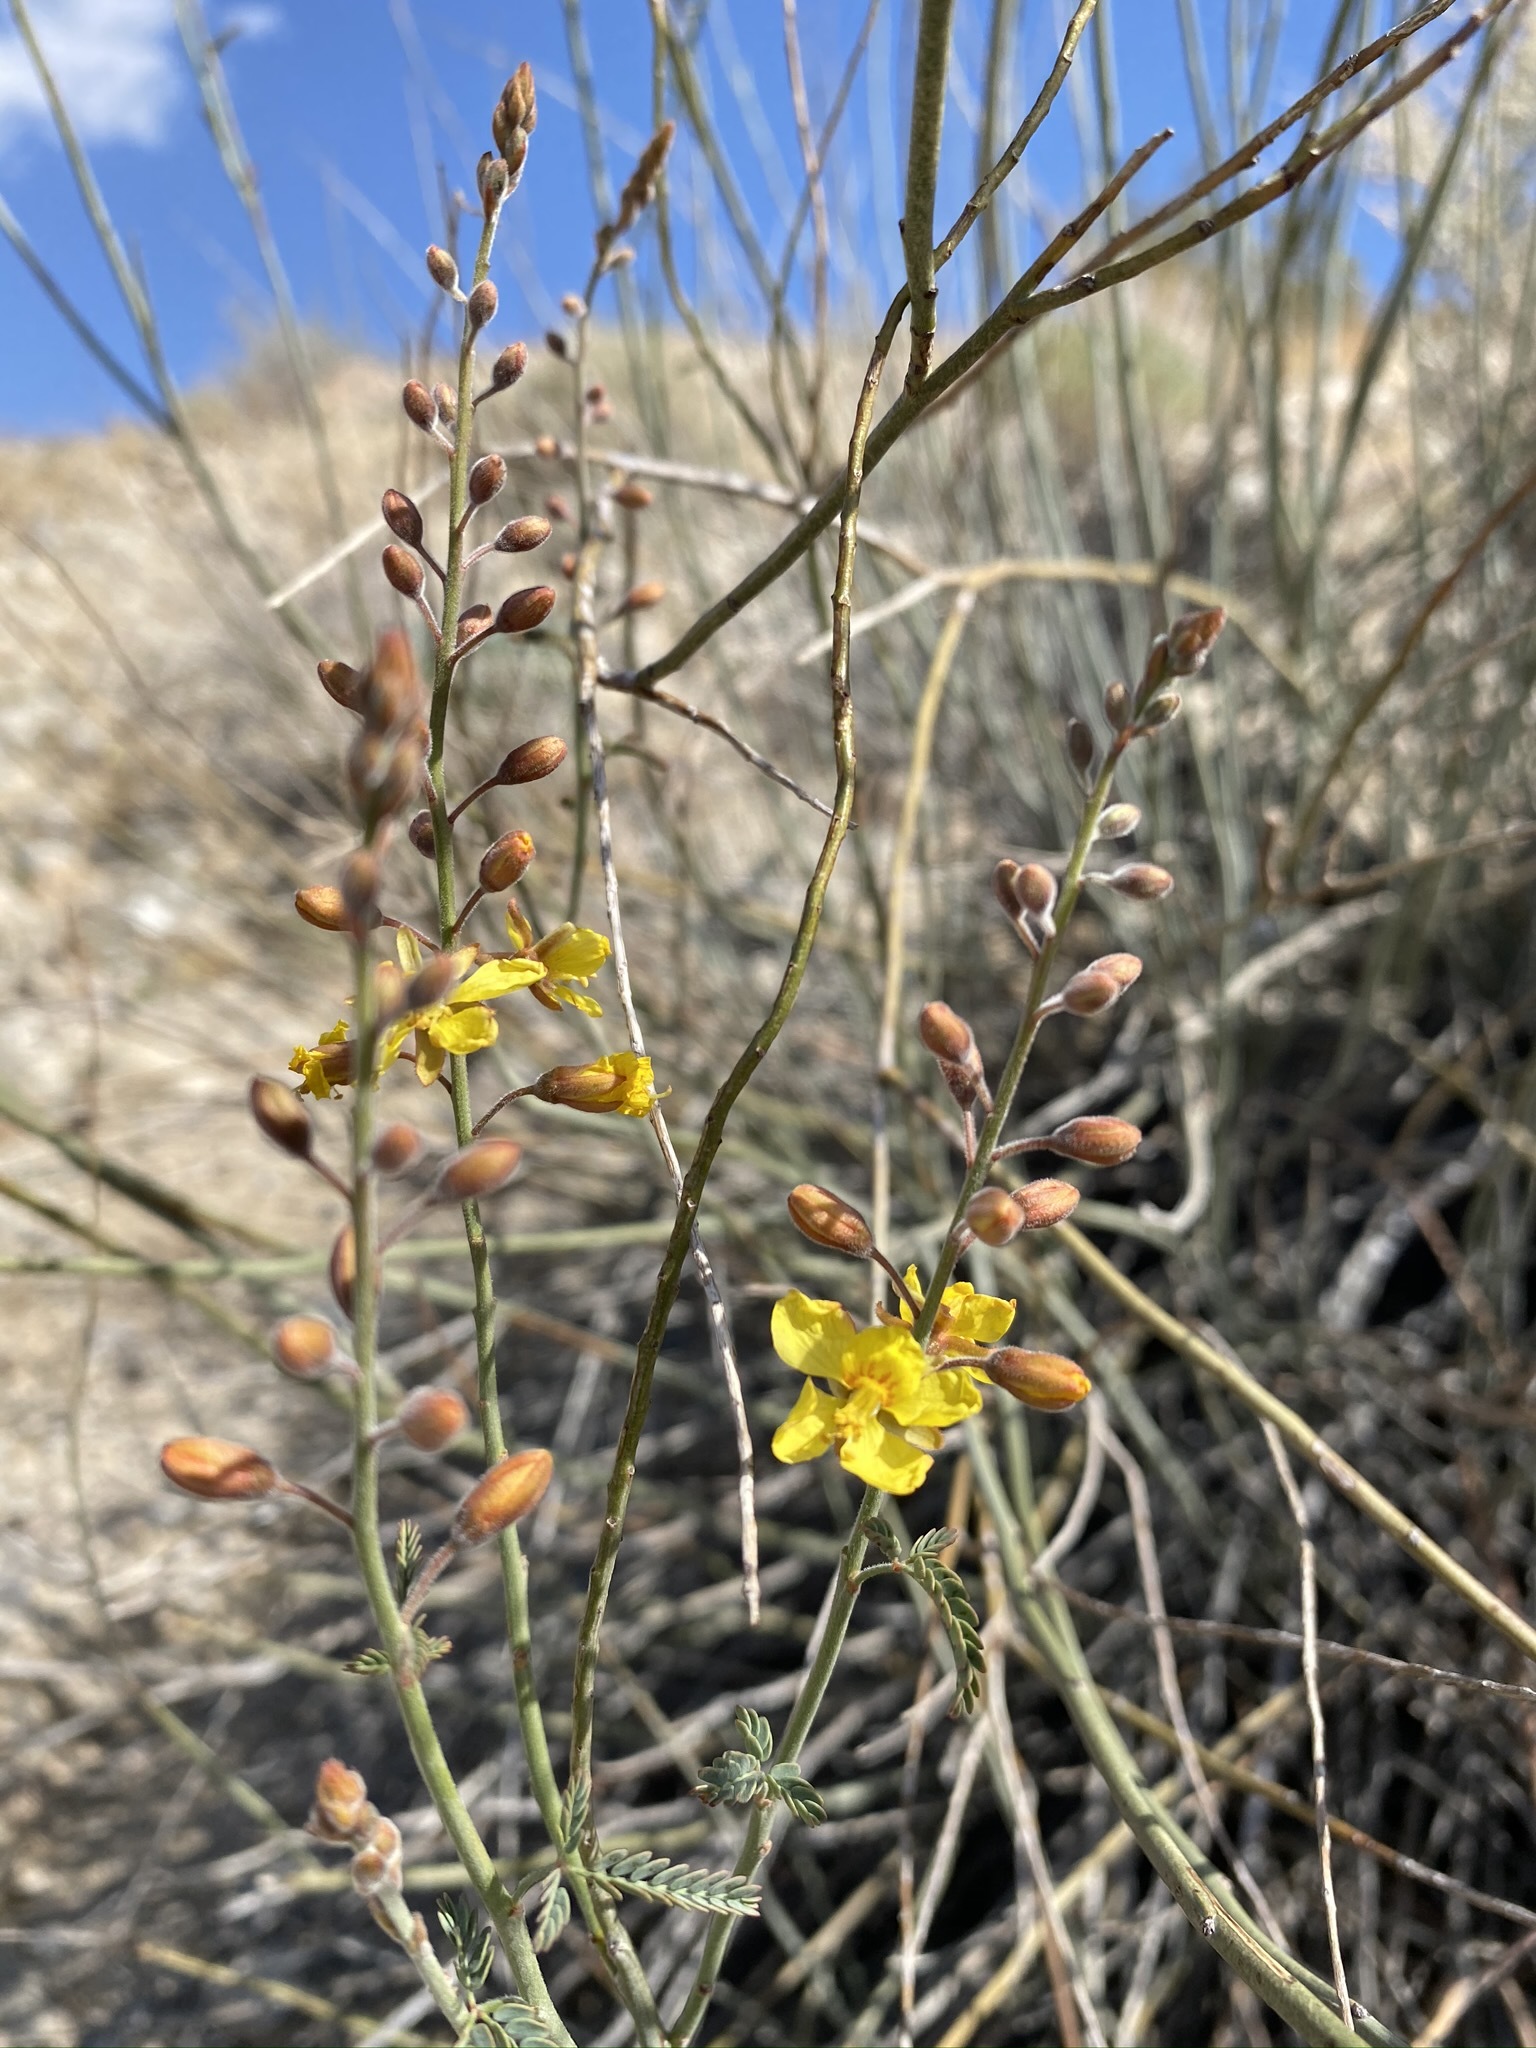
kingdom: Plantae
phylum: Tracheophyta
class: Magnoliopsida
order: Fabales
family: Fabaceae
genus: Hoffmannseggia
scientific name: Hoffmannseggia microphylla
